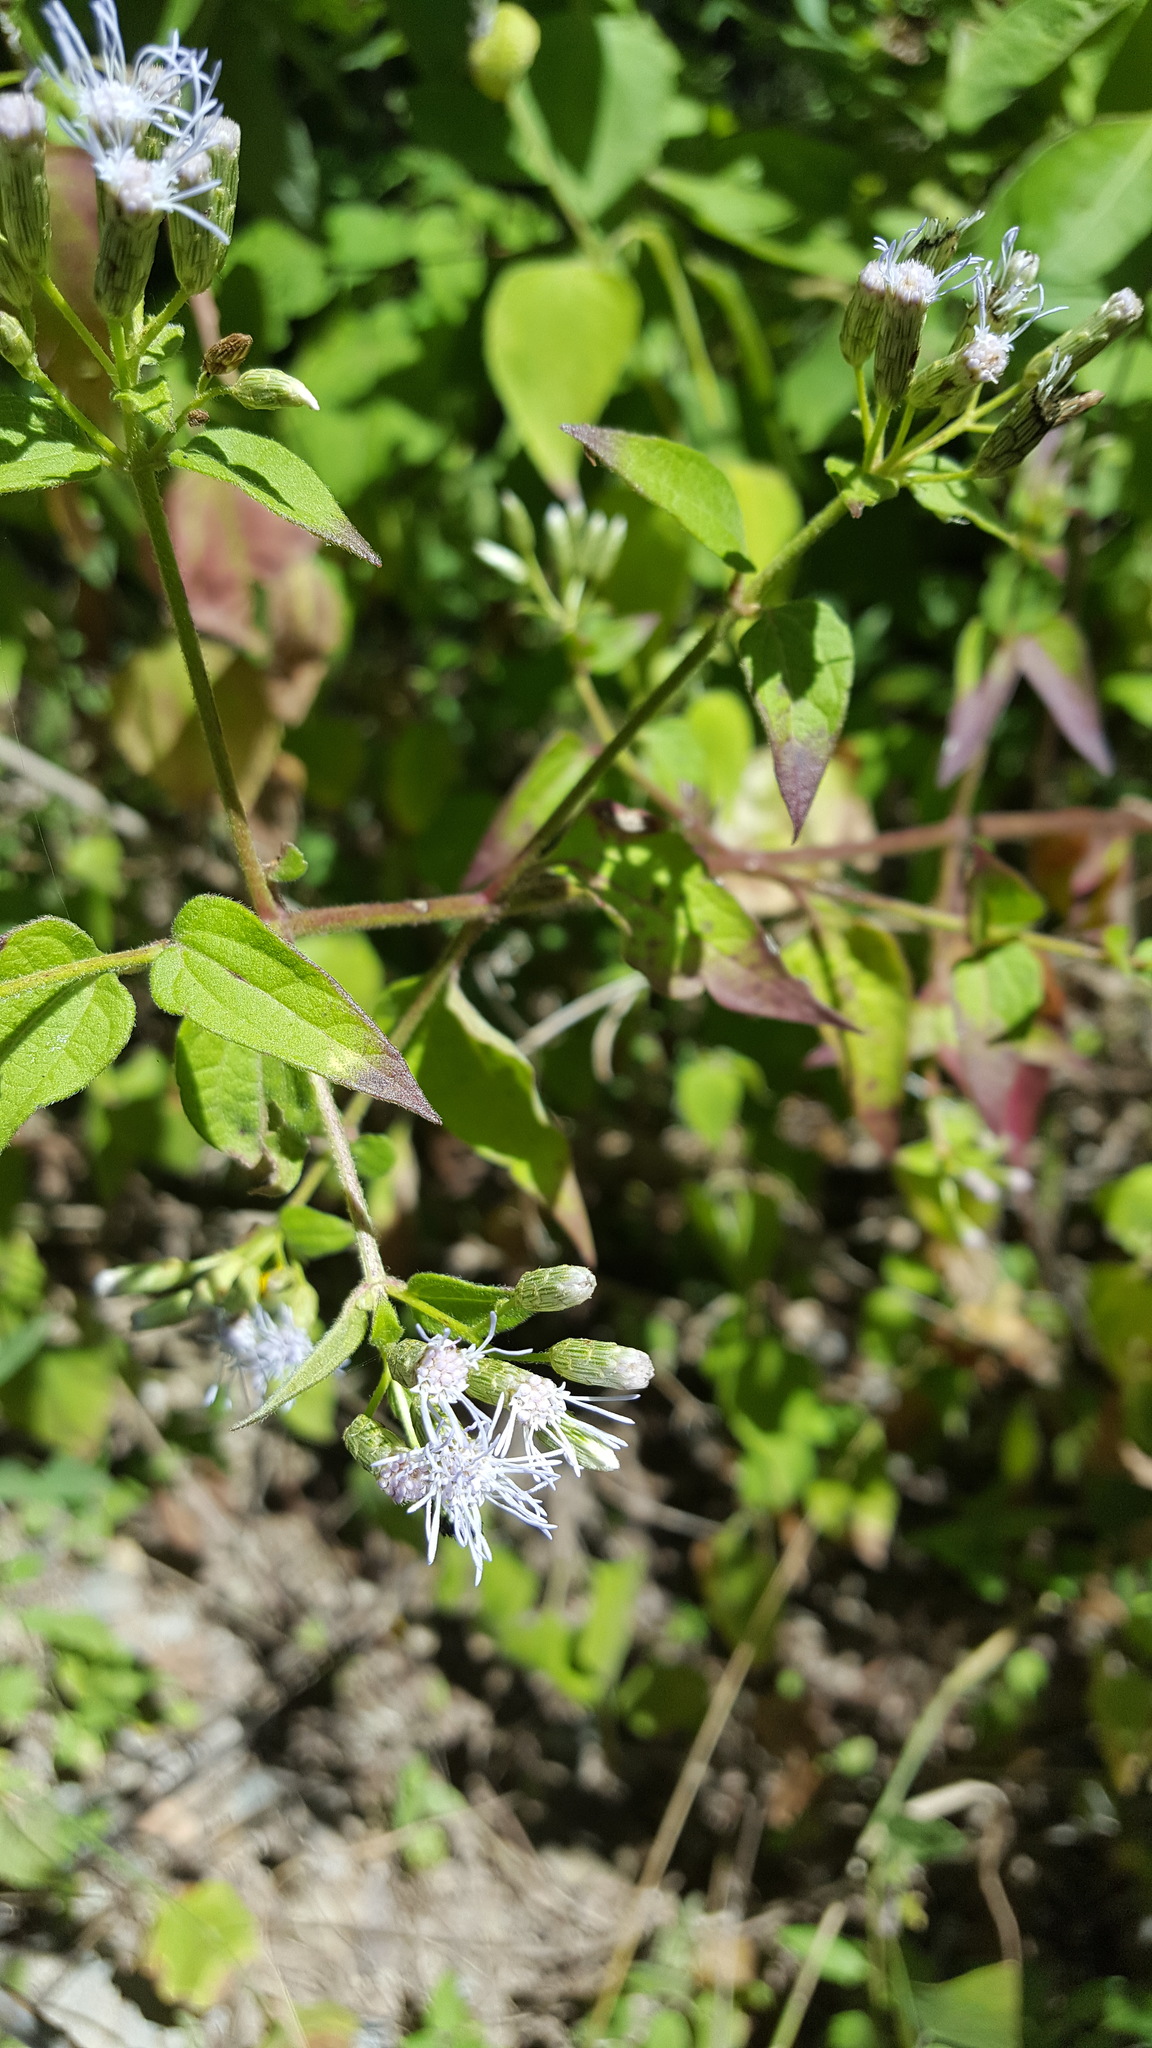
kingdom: Plantae
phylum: Tracheophyta
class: Magnoliopsida
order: Asterales
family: Asteraceae
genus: Chromolaena
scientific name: Chromolaena odorata
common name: Siamweed
